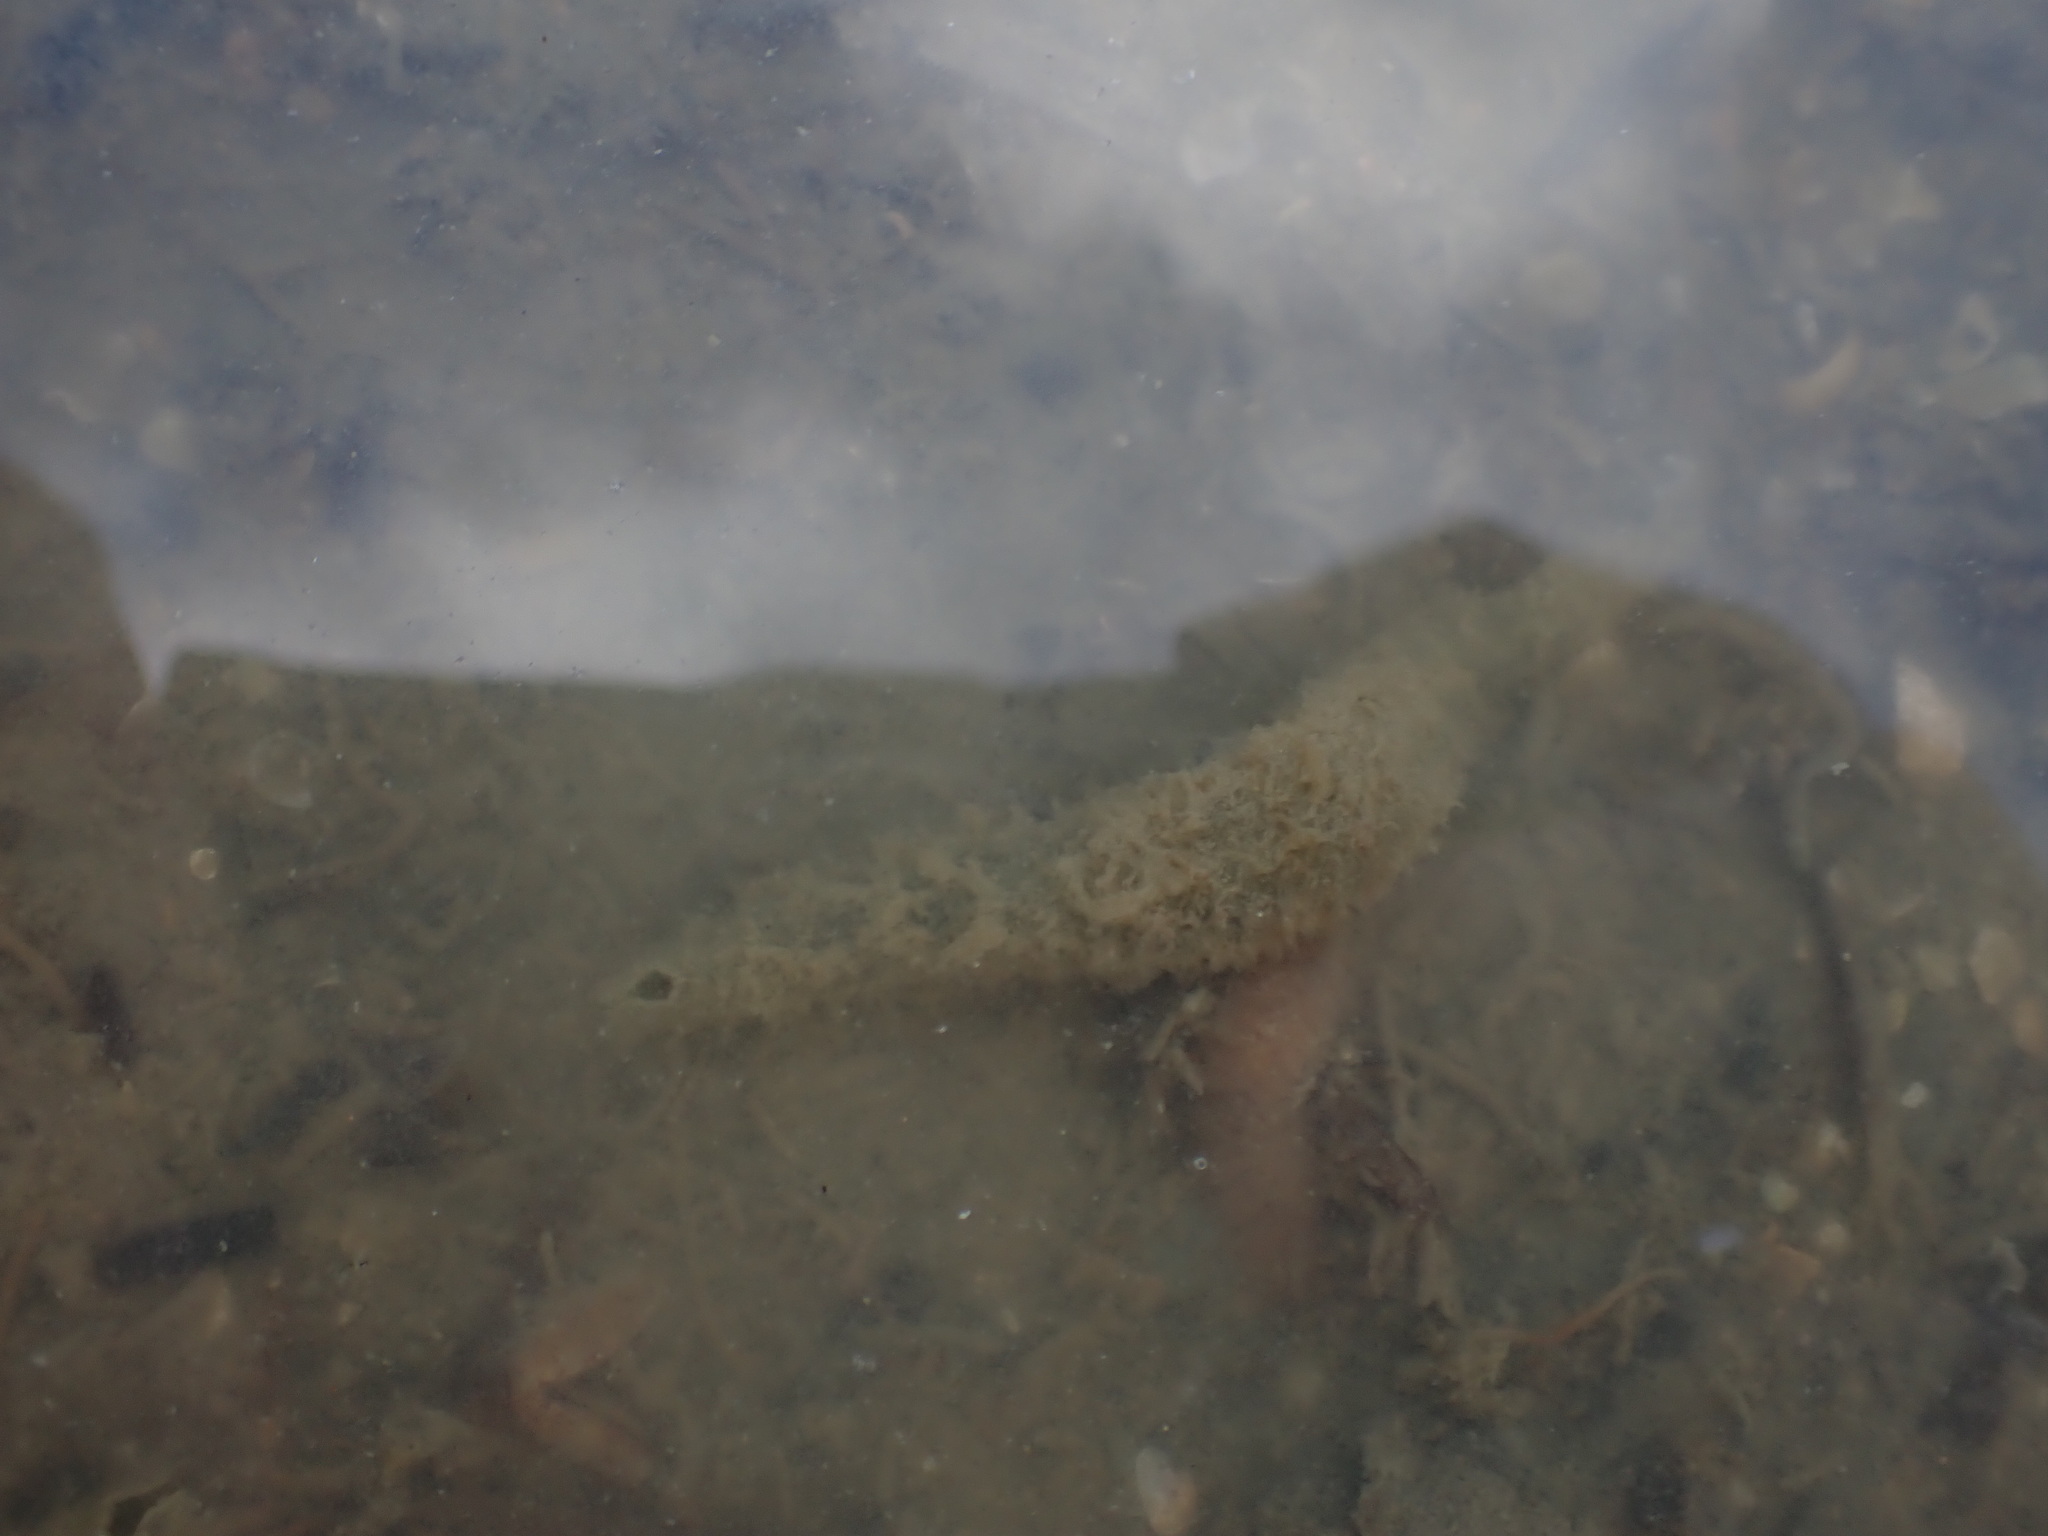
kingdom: Animalia
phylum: Annelida
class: Polychaeta
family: Flabelligeridae
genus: Flabelligera
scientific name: Flabelligera bicolor
